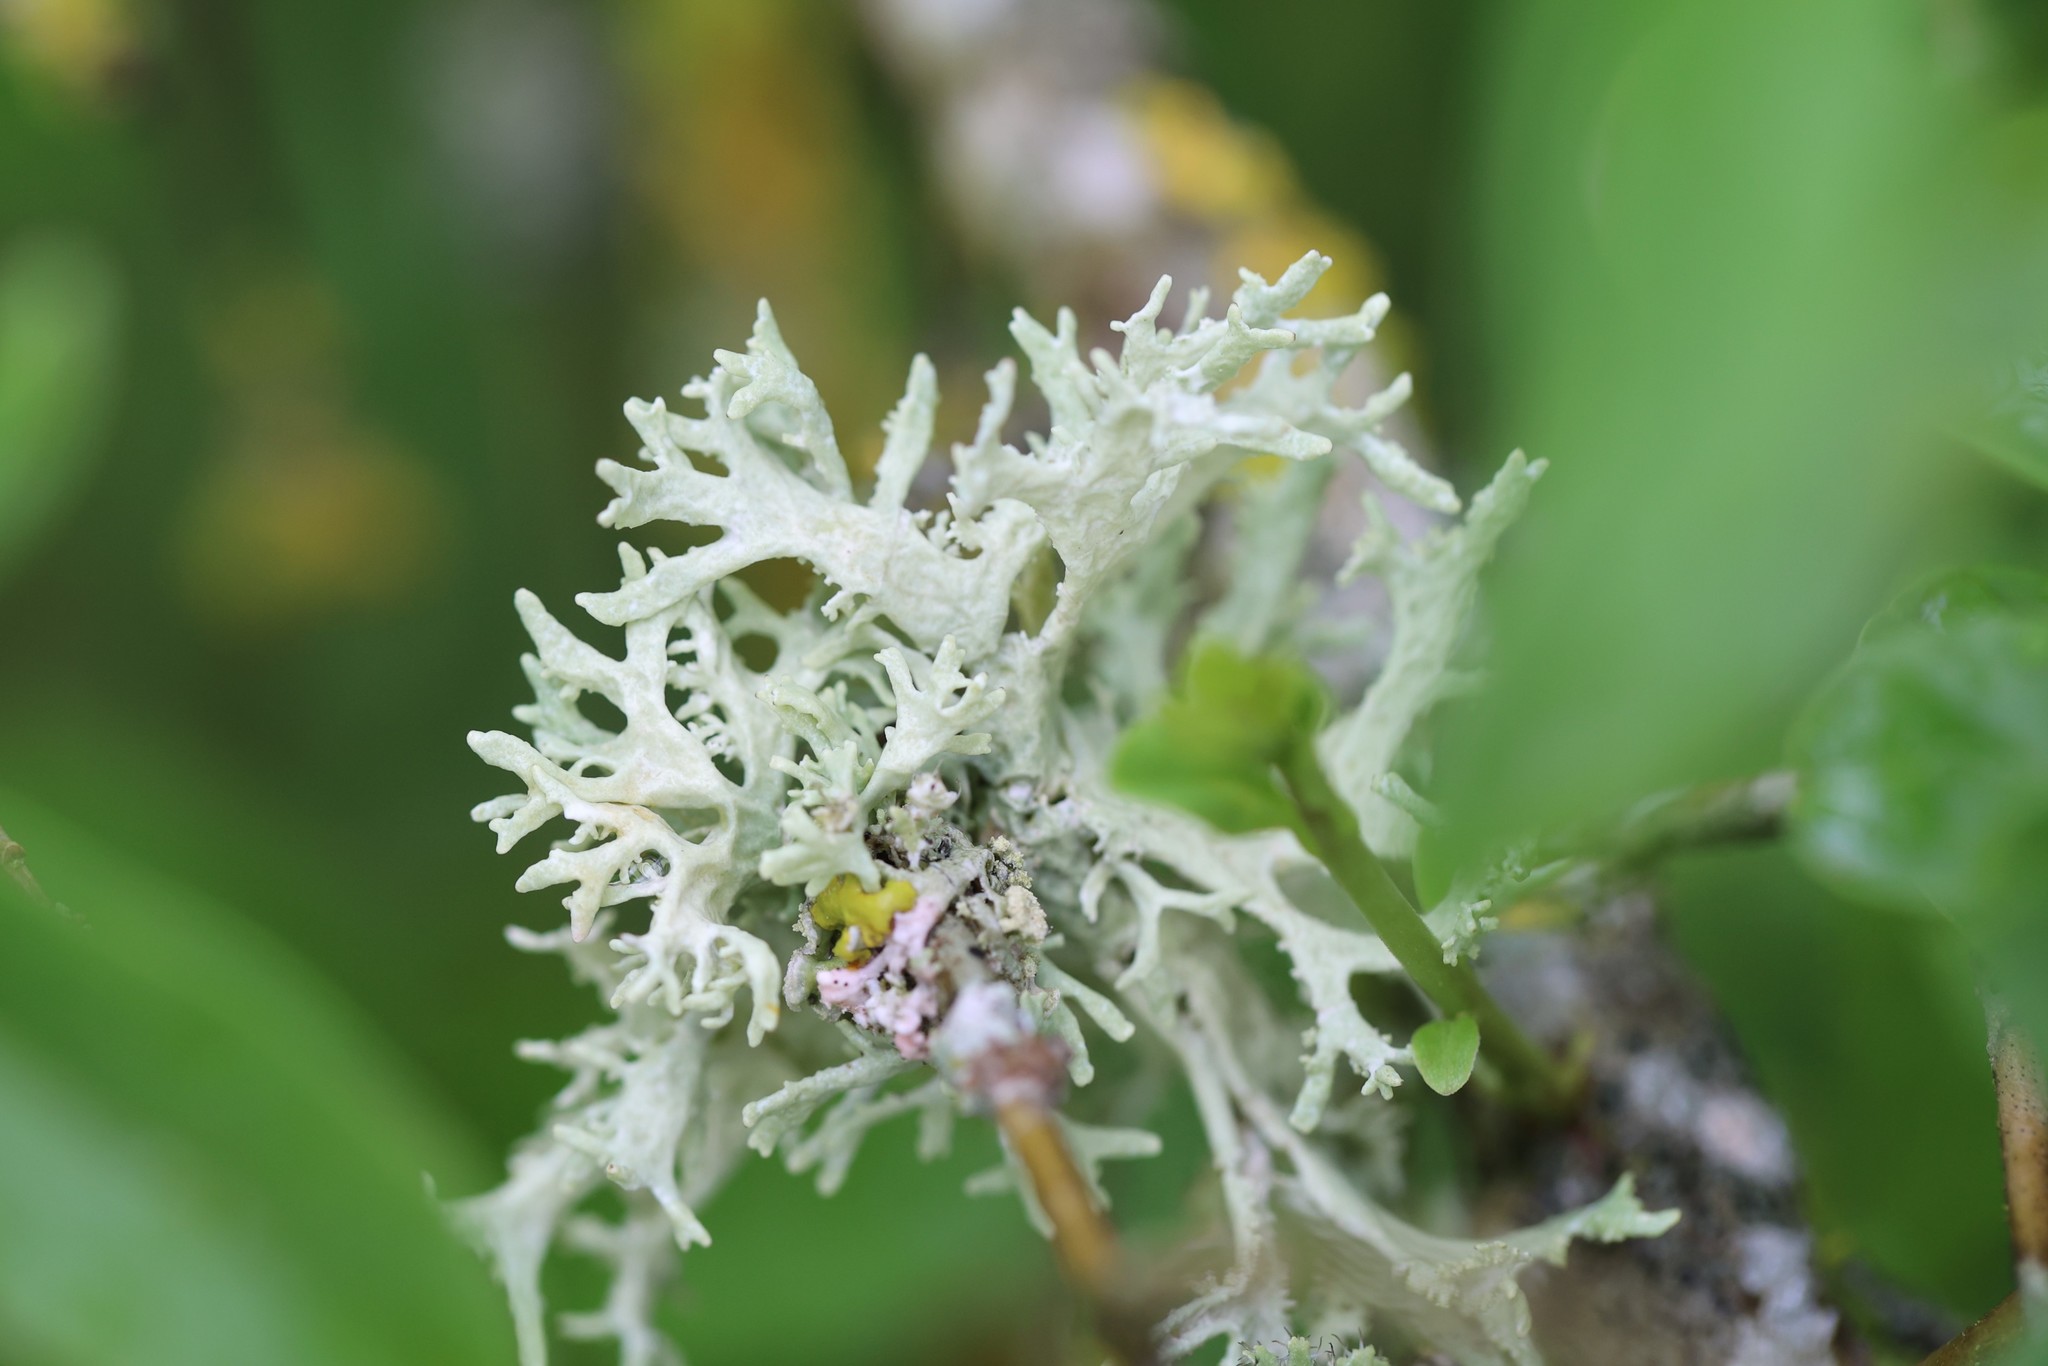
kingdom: Fungi
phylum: Ascomycota
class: Lecanoromycetes
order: Lecanorales
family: Parmeliaceae
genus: Evernia
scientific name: Evernia prunastri
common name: Oak moss
